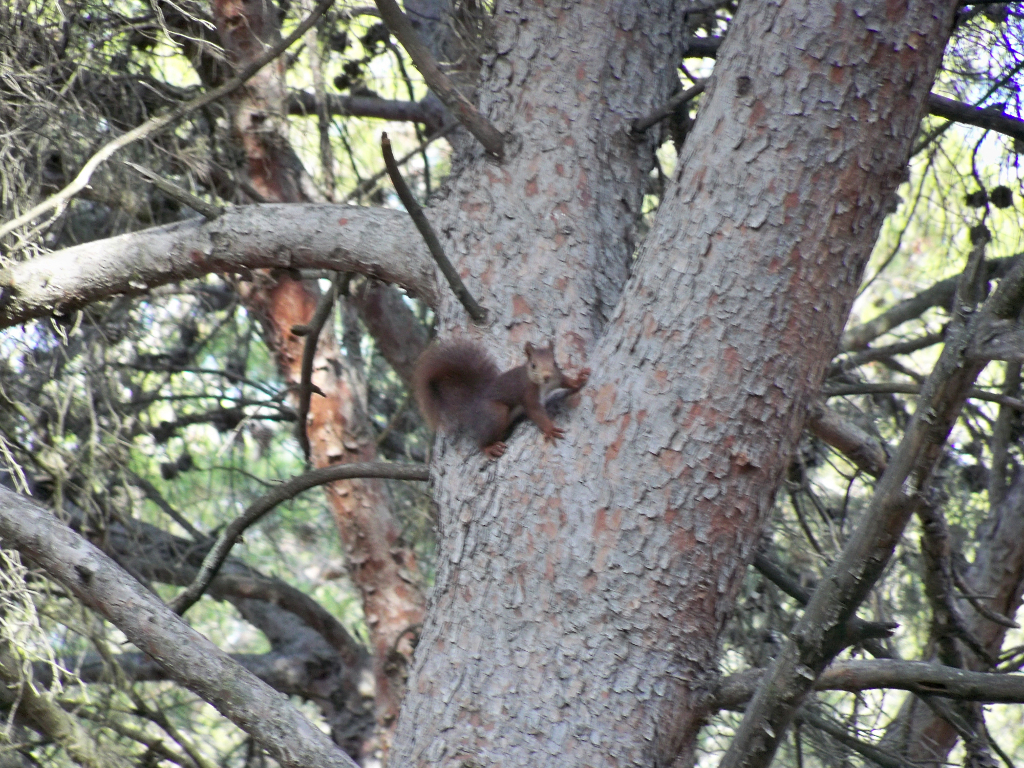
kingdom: Animalia
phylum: Chordata
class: Mammalia
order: Rodentia
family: Sciuridae
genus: Sciurus
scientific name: Sciurus vulgaris
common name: Eurasian red squirrel
